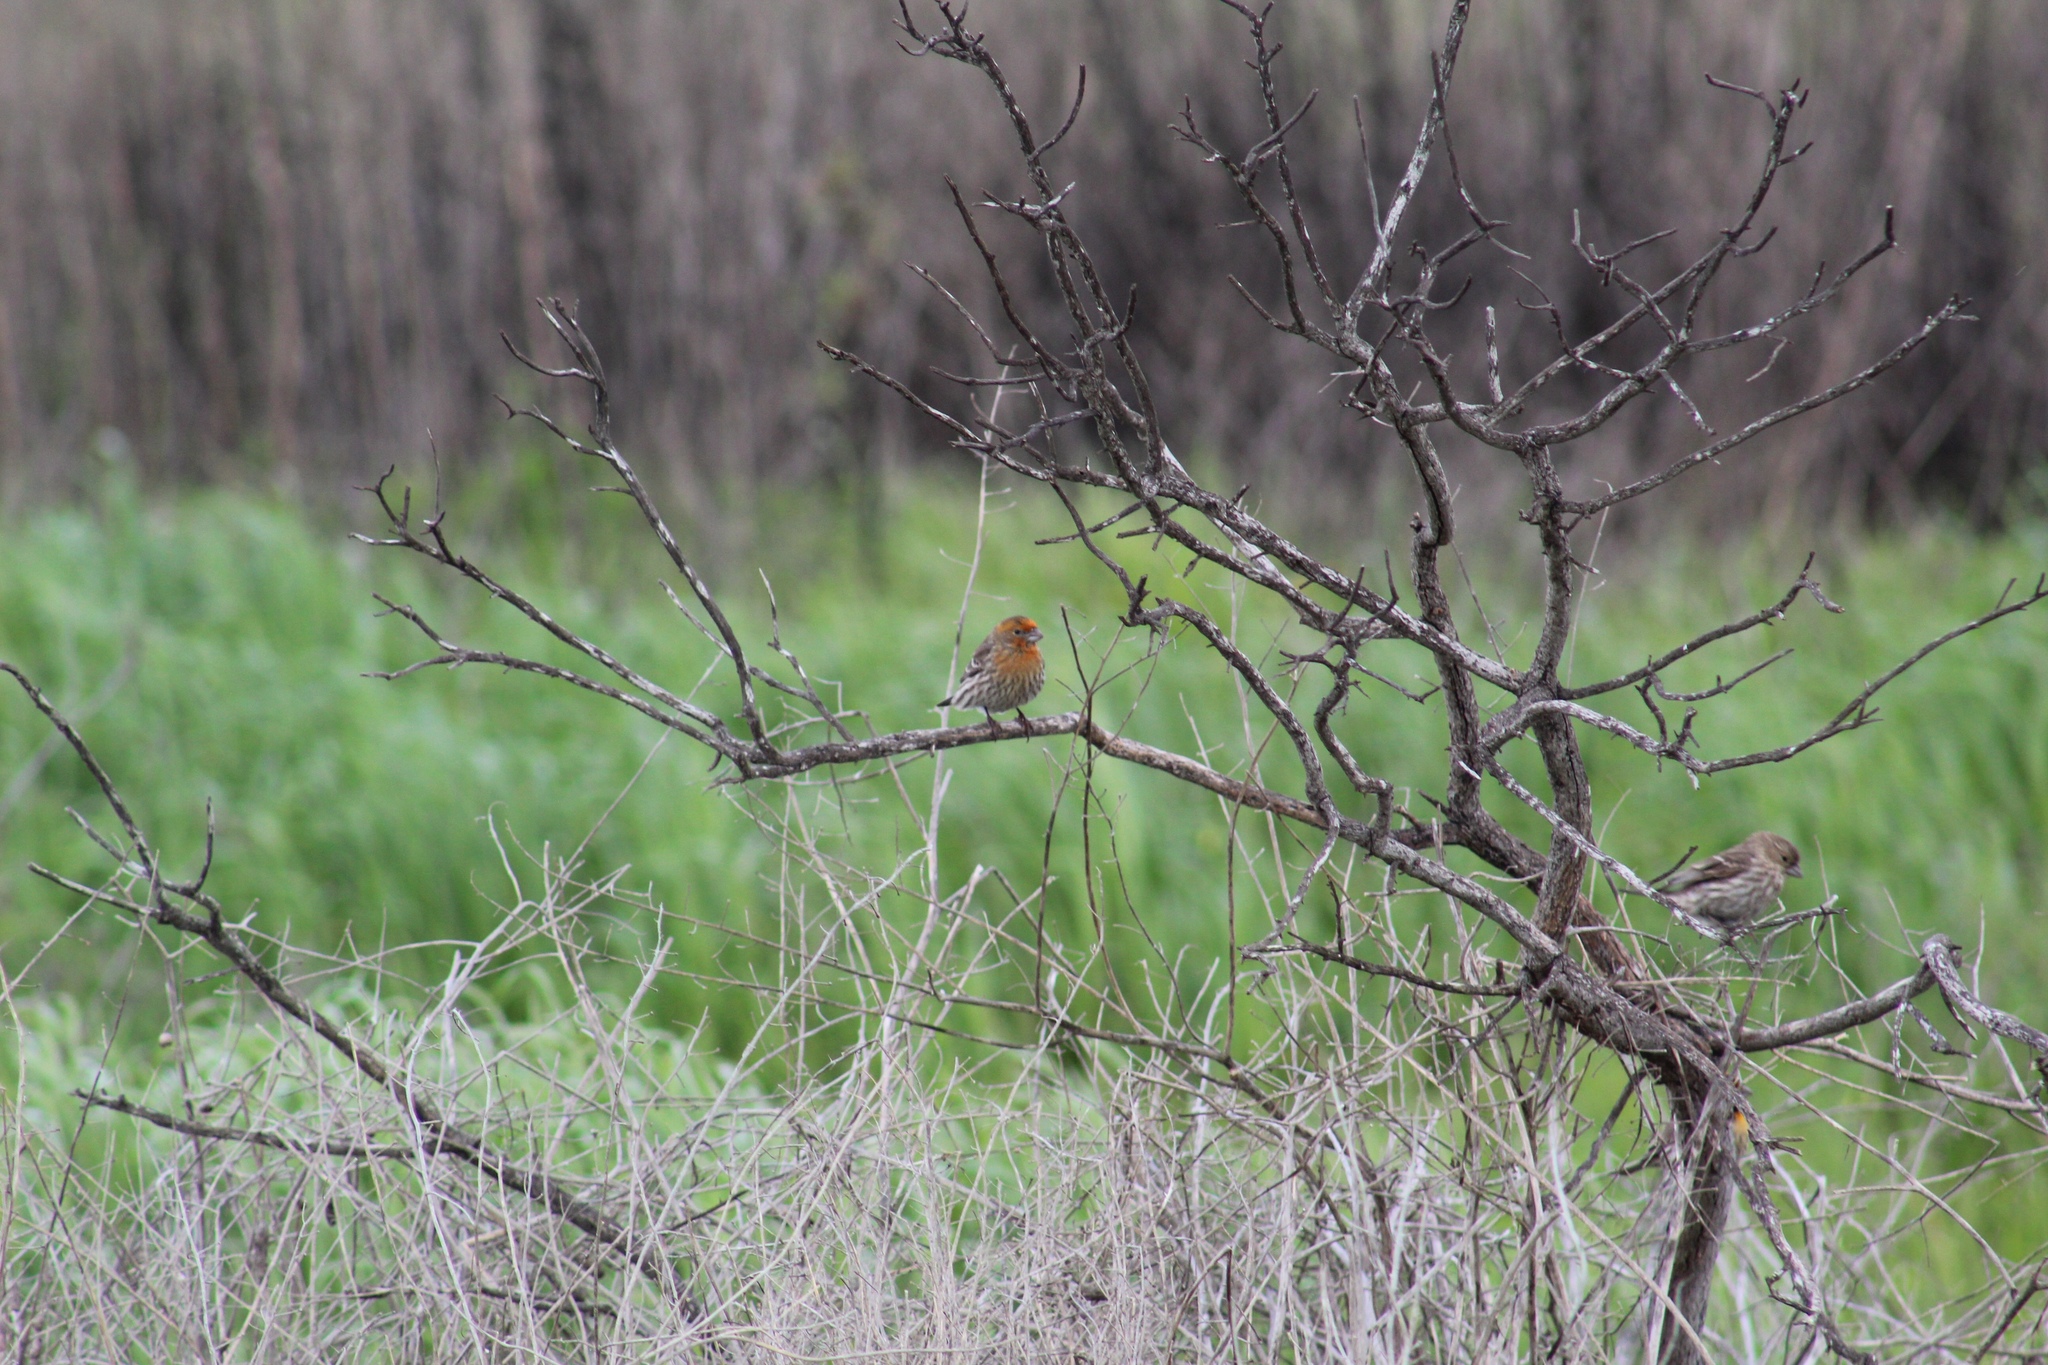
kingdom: Animalia
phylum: Chordata
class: Aves
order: Passeriformes
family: Fringillidae
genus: Haemorhous
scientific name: Haemorhous mexicanus
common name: House finch
